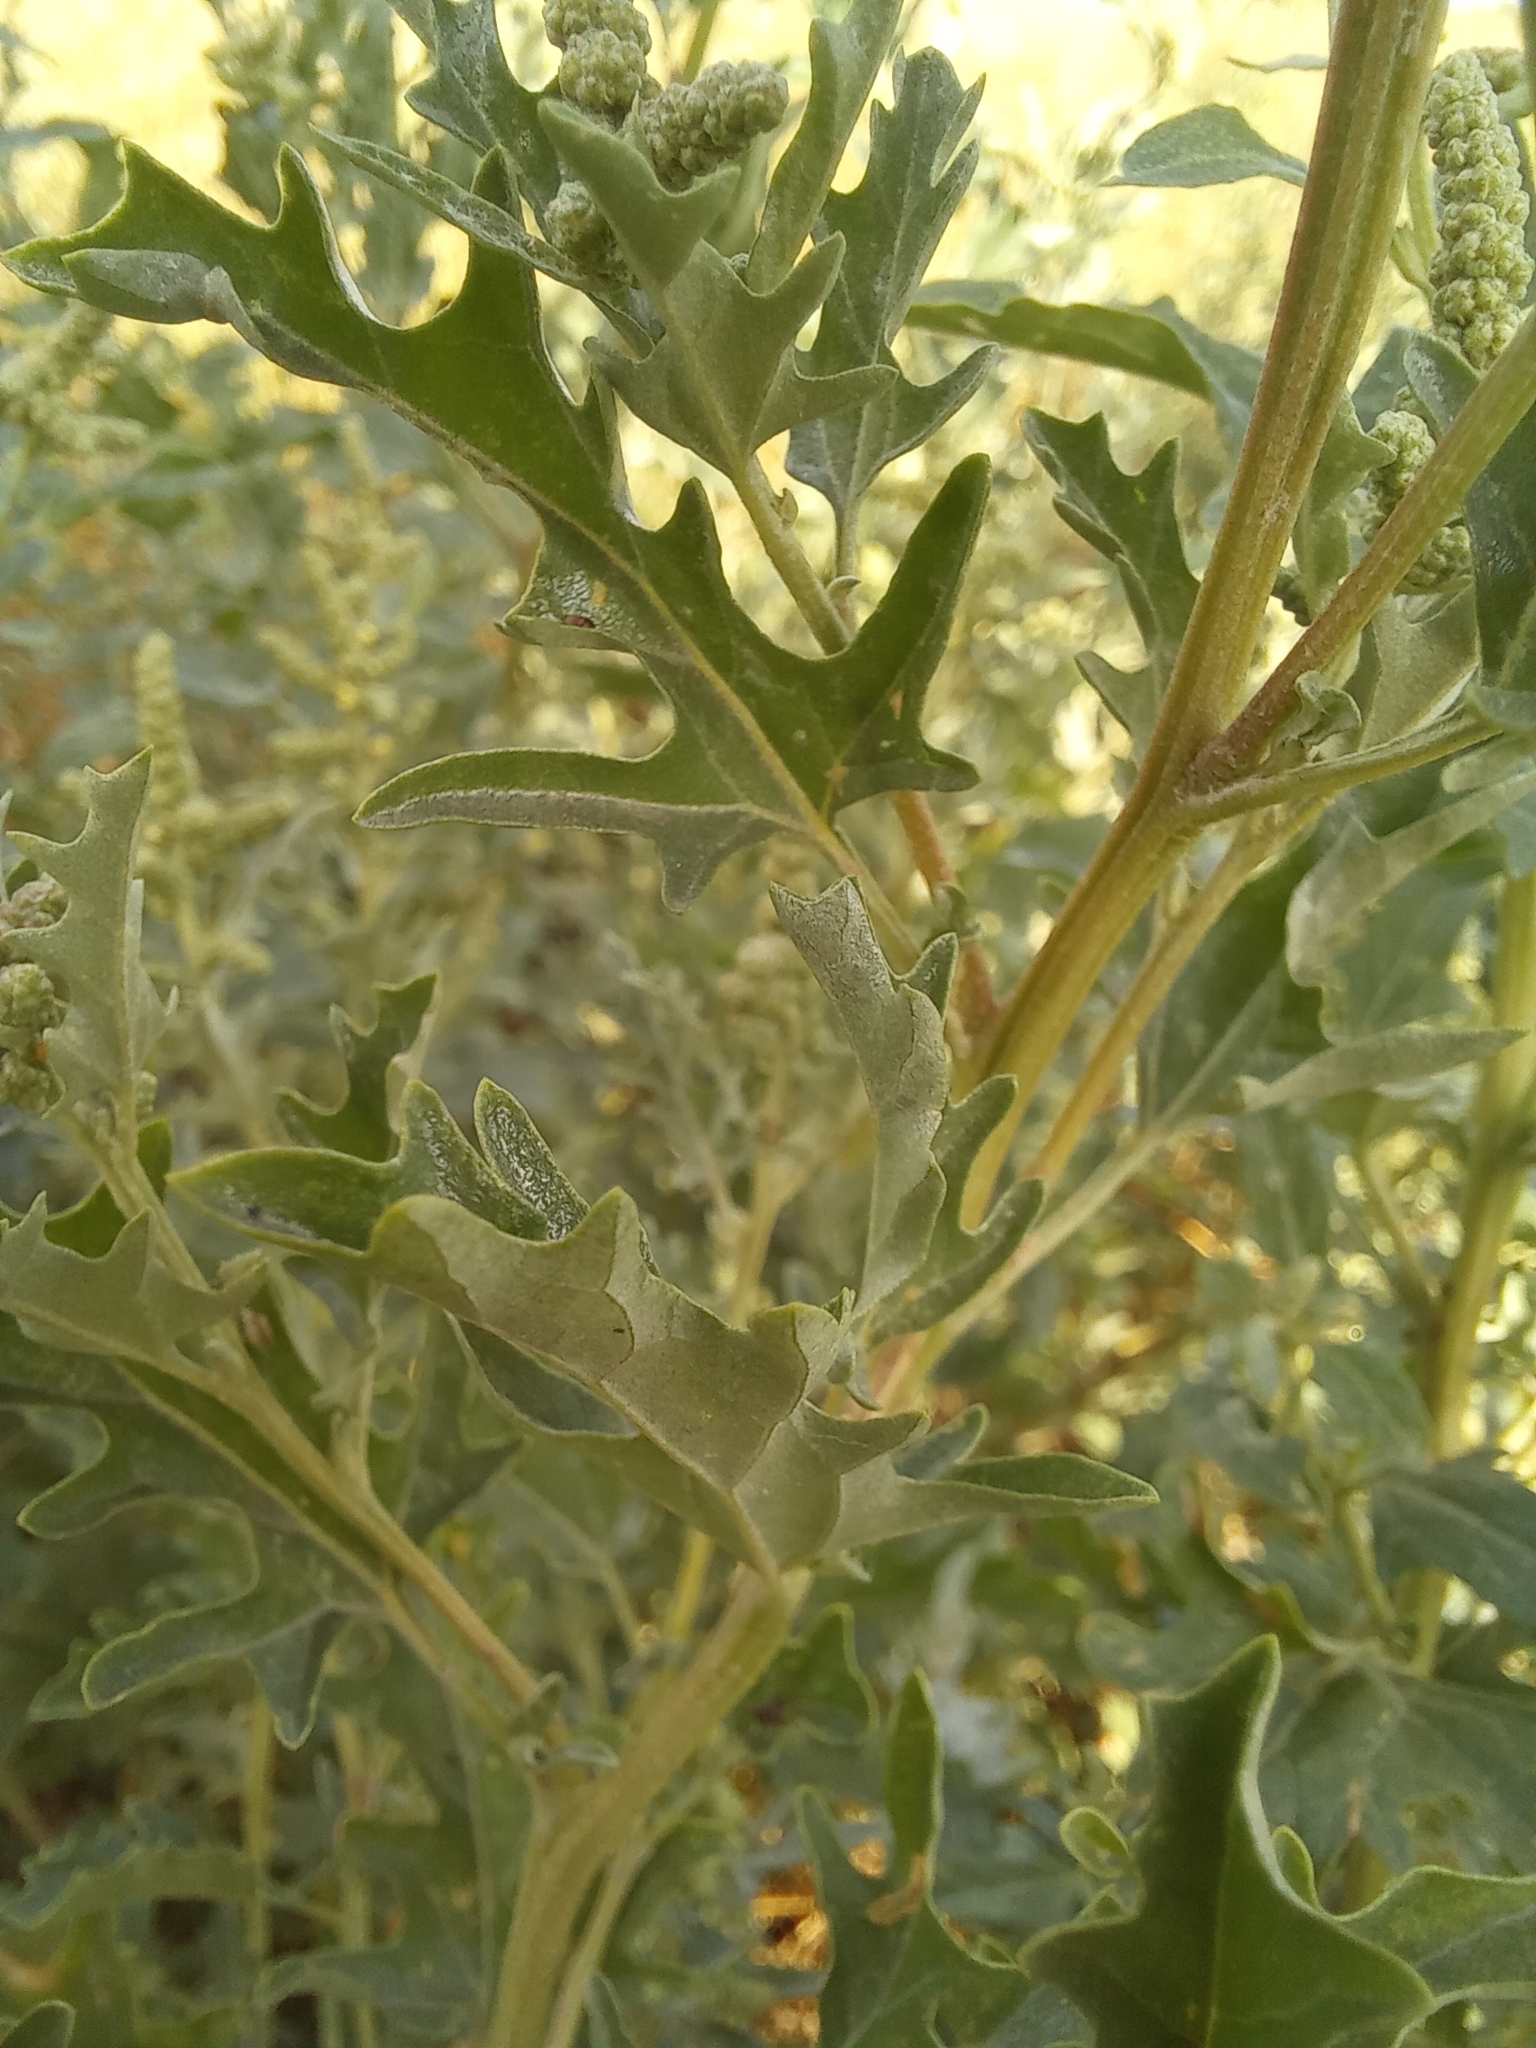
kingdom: Plantae
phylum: Tracheophyta
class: Magnoliopsida
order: Caryophyllales
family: Amaranthaceae
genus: Atriplex
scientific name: Atriplex tatarica
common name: Tatarian orache
